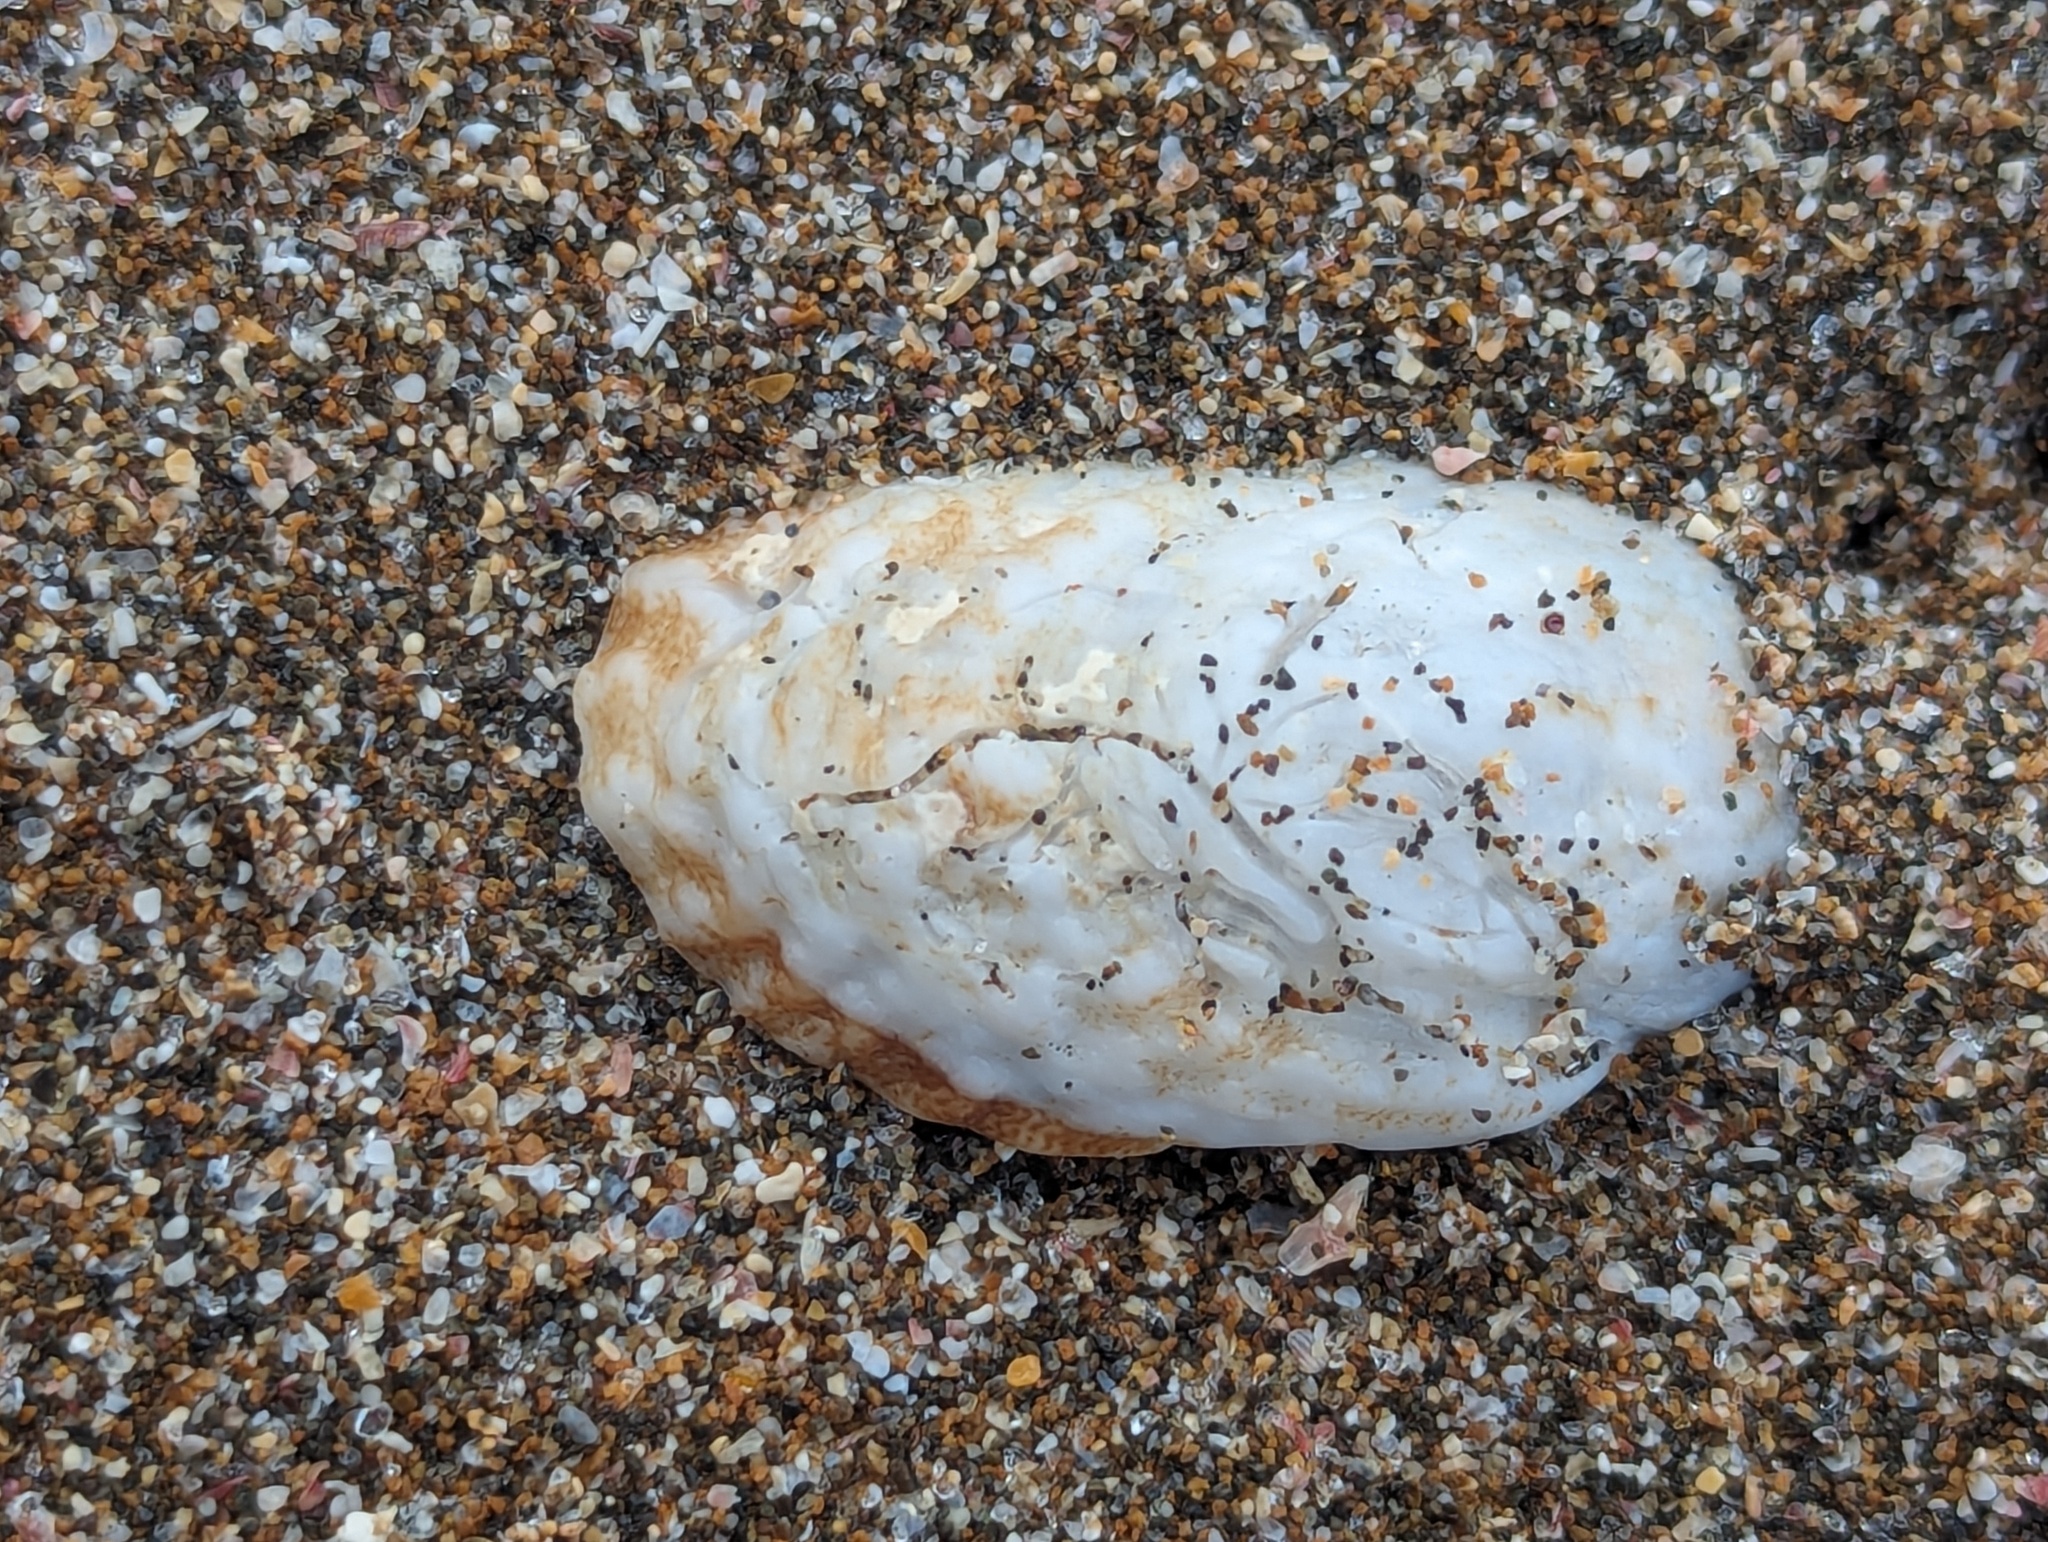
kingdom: Animalia
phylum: Mollusca
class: Gastropoda
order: Littorinimorpha
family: Calyptraeidae
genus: Maoricrypta
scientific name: Maoricrypta costata
